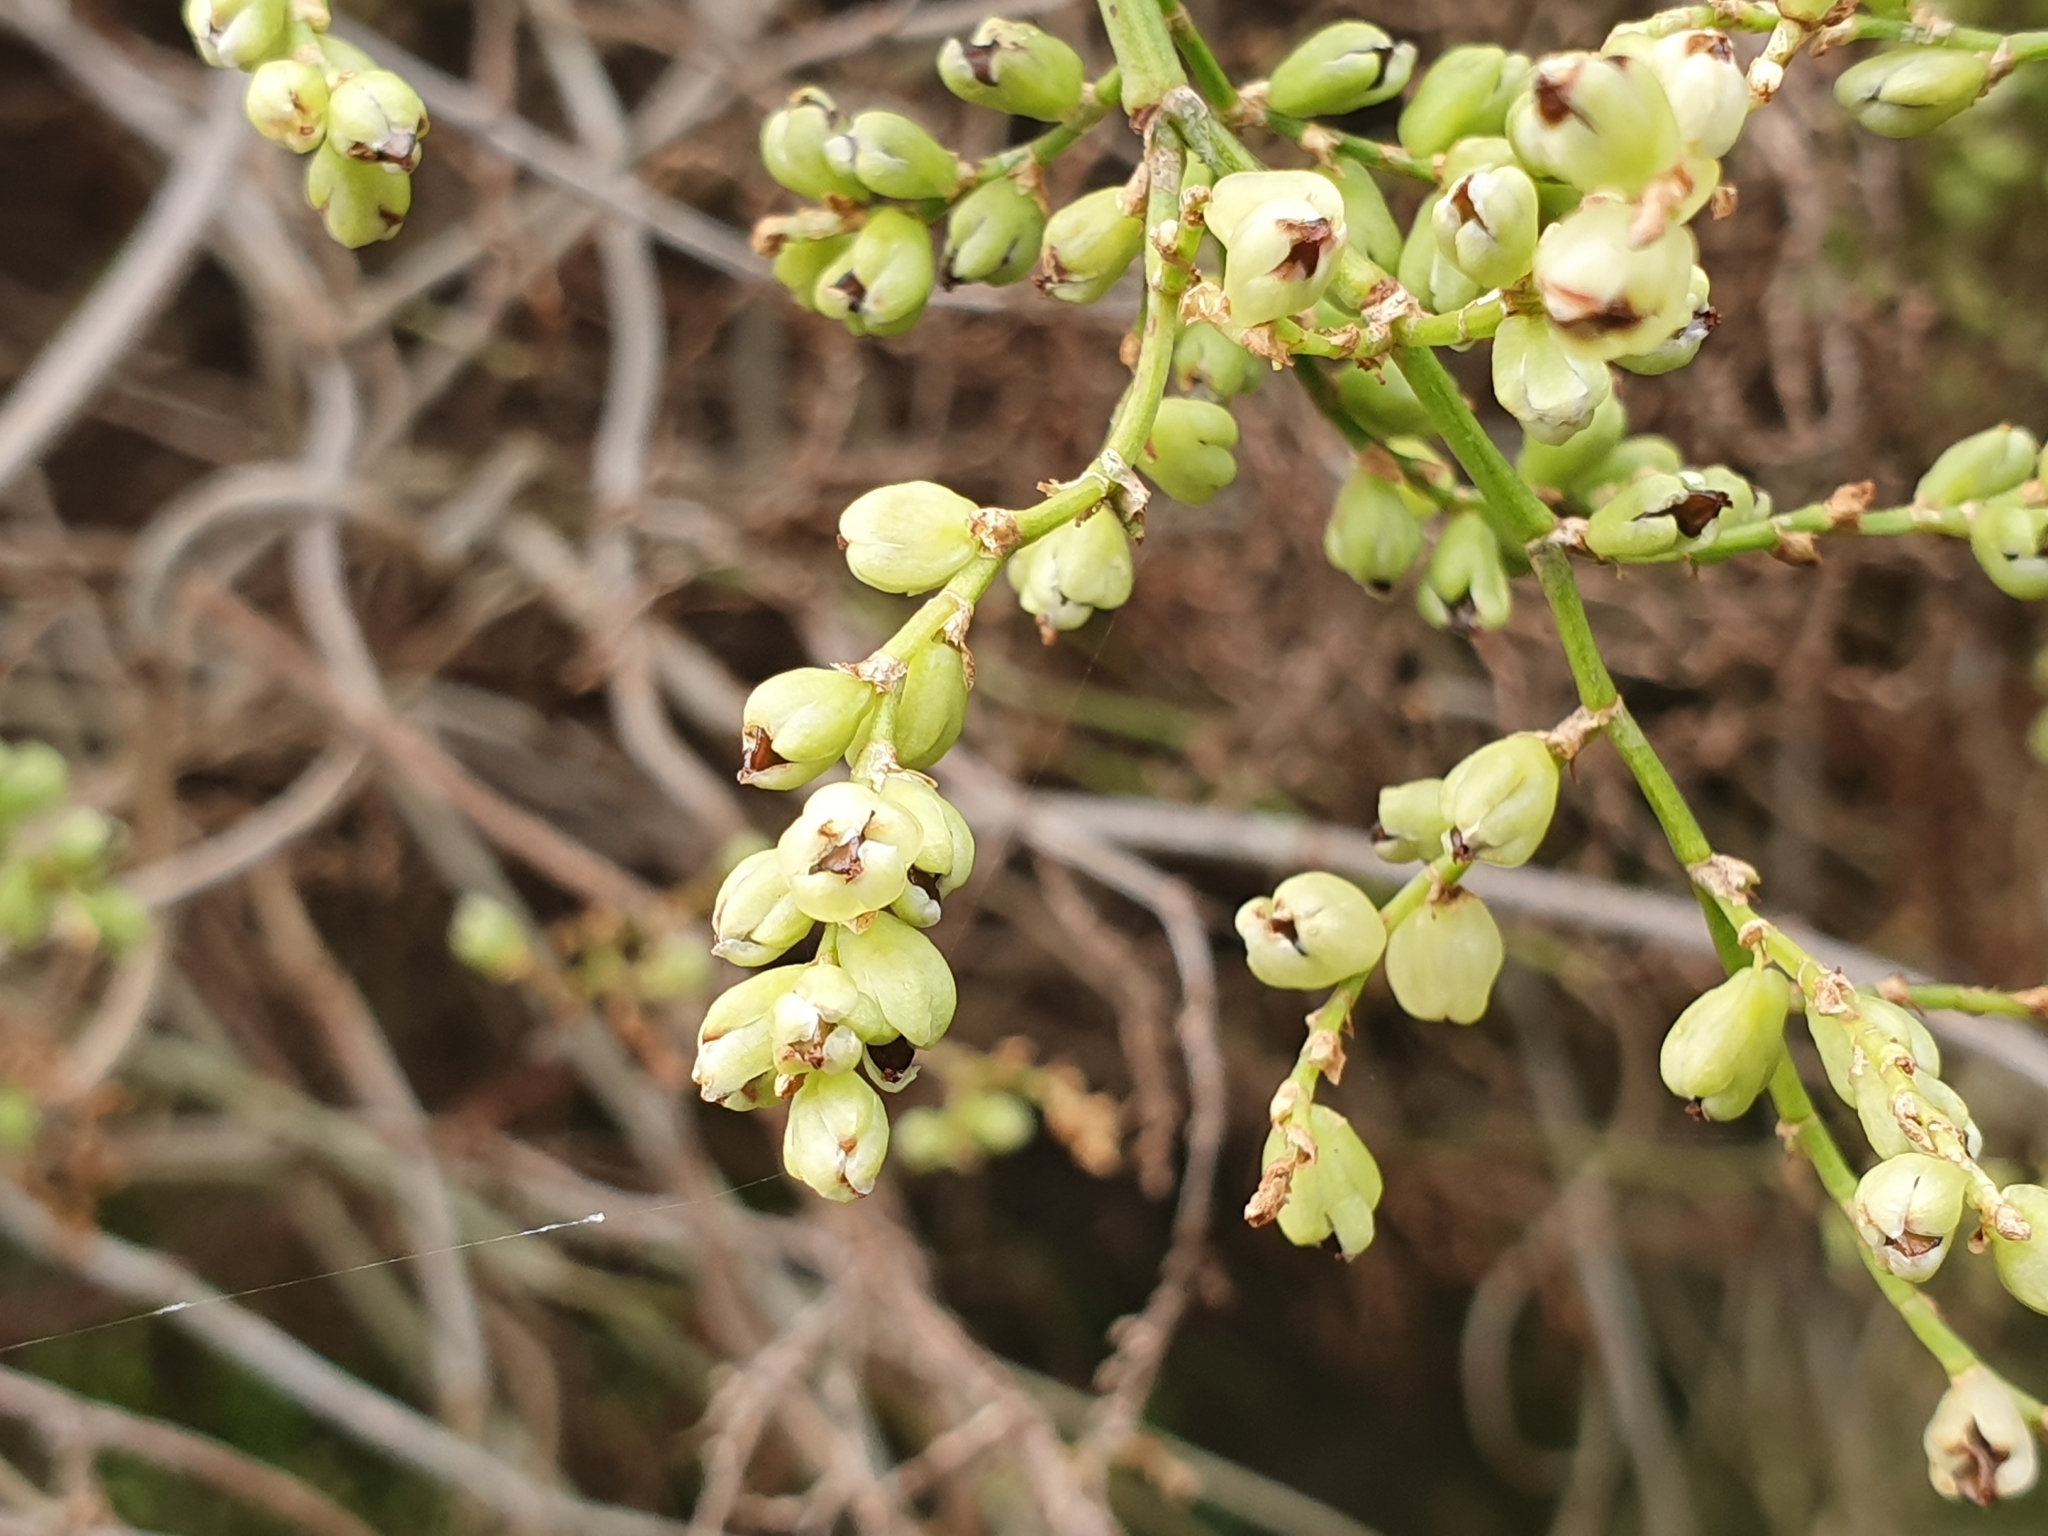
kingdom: Plantae
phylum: Tracheophyta
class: Magnoliopsida
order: Caryophyllales
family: Polygonaceae
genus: Muehlenbeckia
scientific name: Muehlenbeckia australis
